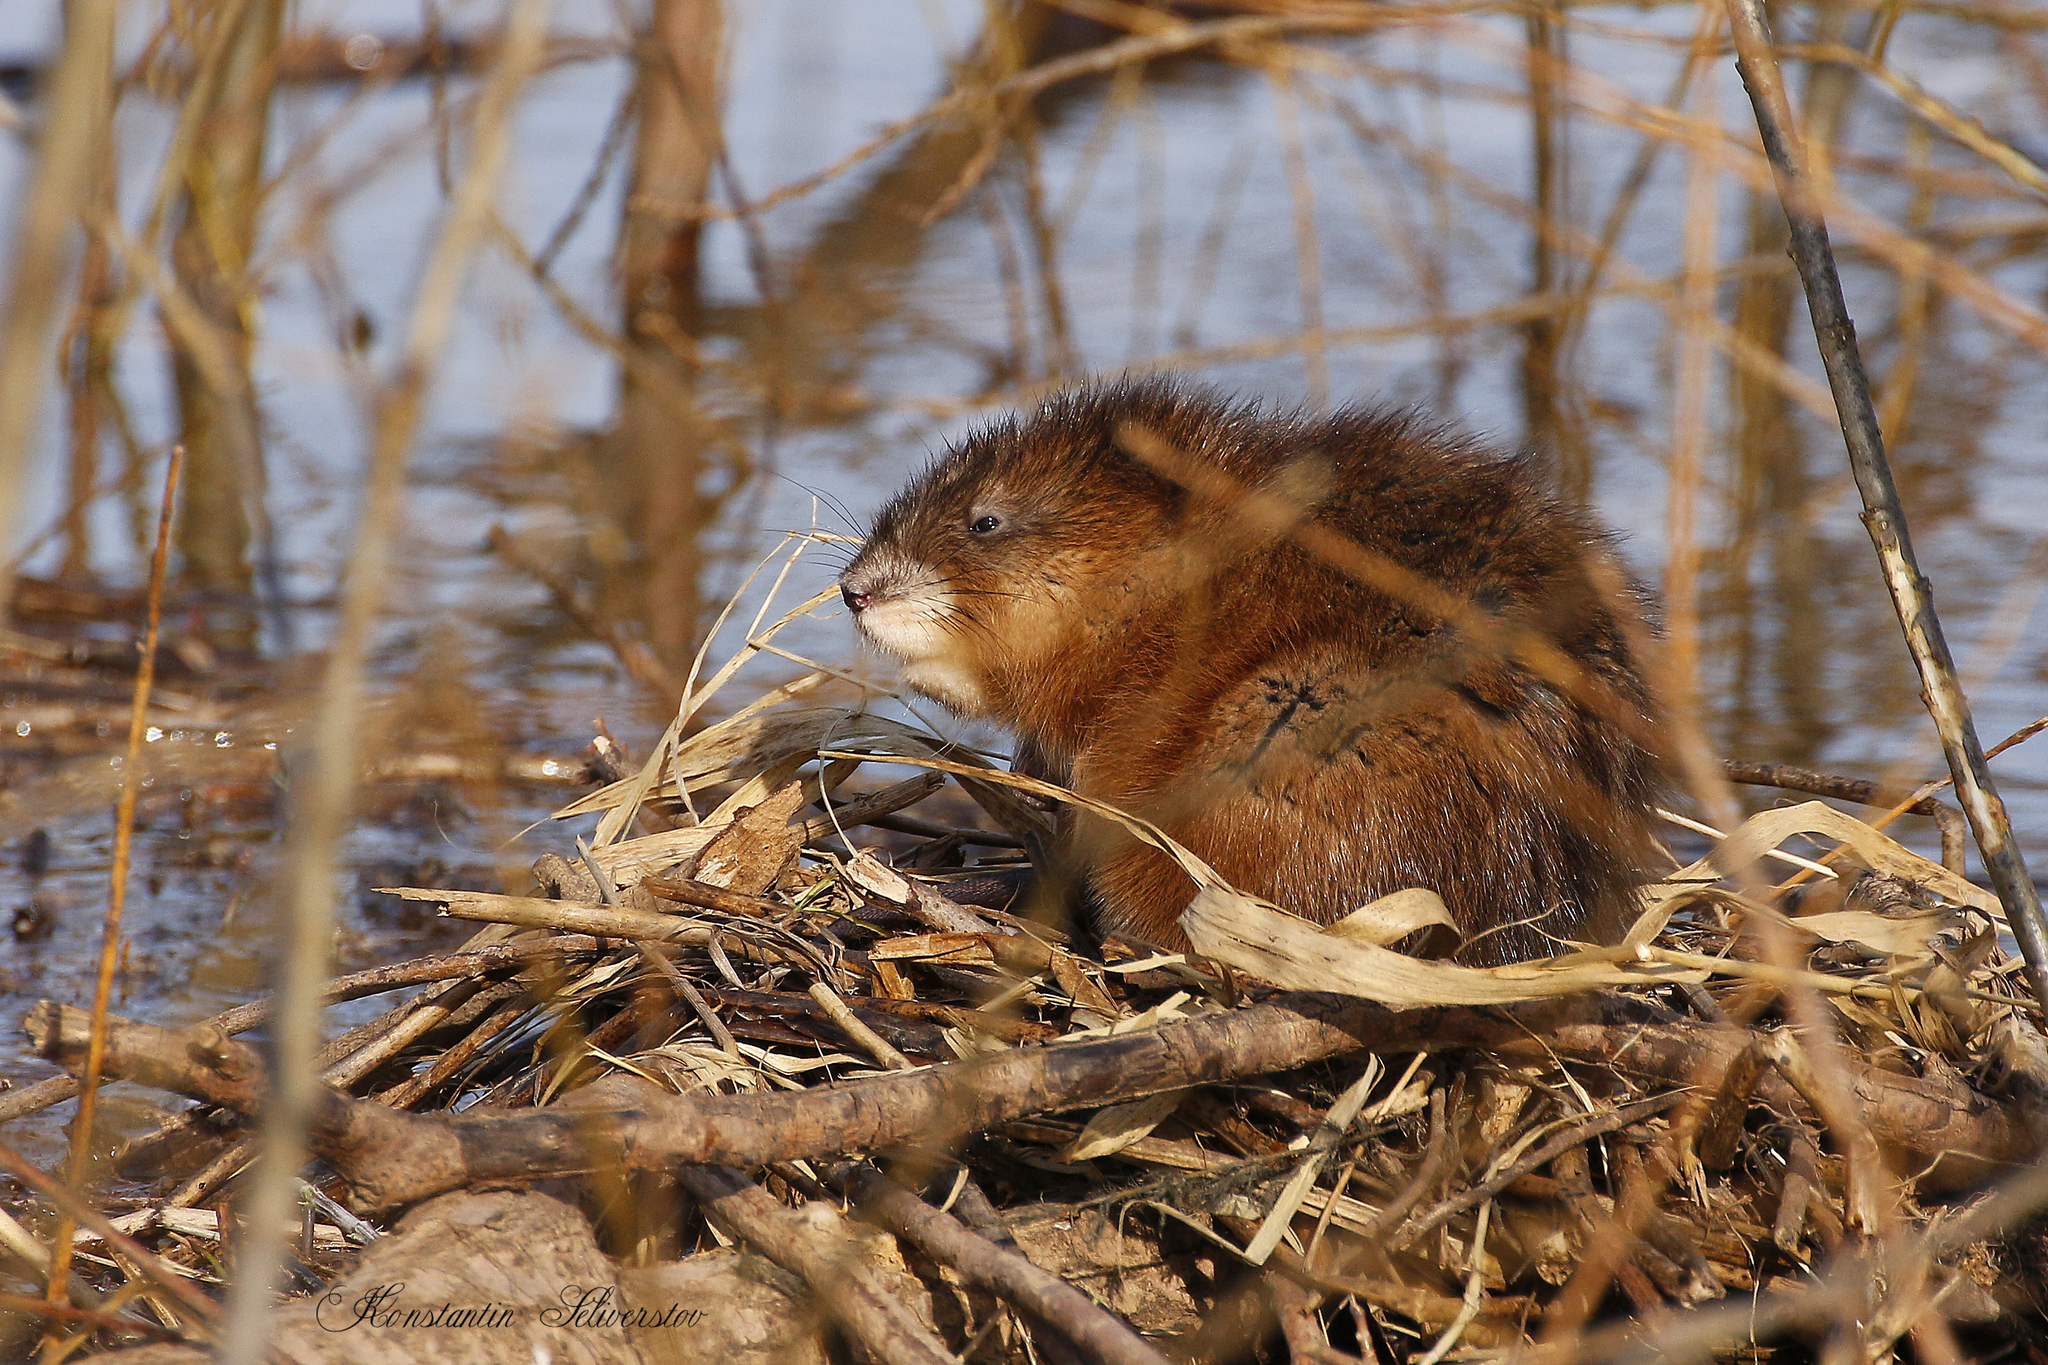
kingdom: Animalia
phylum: Chordata
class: Mammalia
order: Rodentia
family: Cricetidae
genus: Ondatra
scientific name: Ondatra zibethicus
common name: Muskrat
